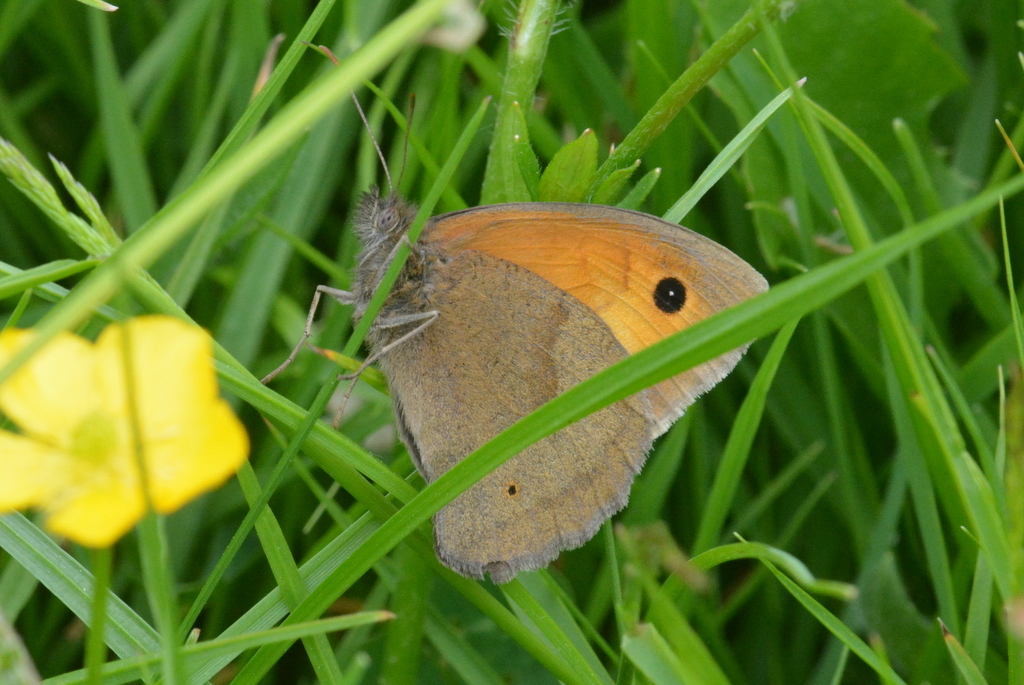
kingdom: Animalia
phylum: Arthropoda
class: Insecta
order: Lepidoptera
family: Nymphalidae
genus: Maniola
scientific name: Maniola jurtina
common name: Meadow brown
